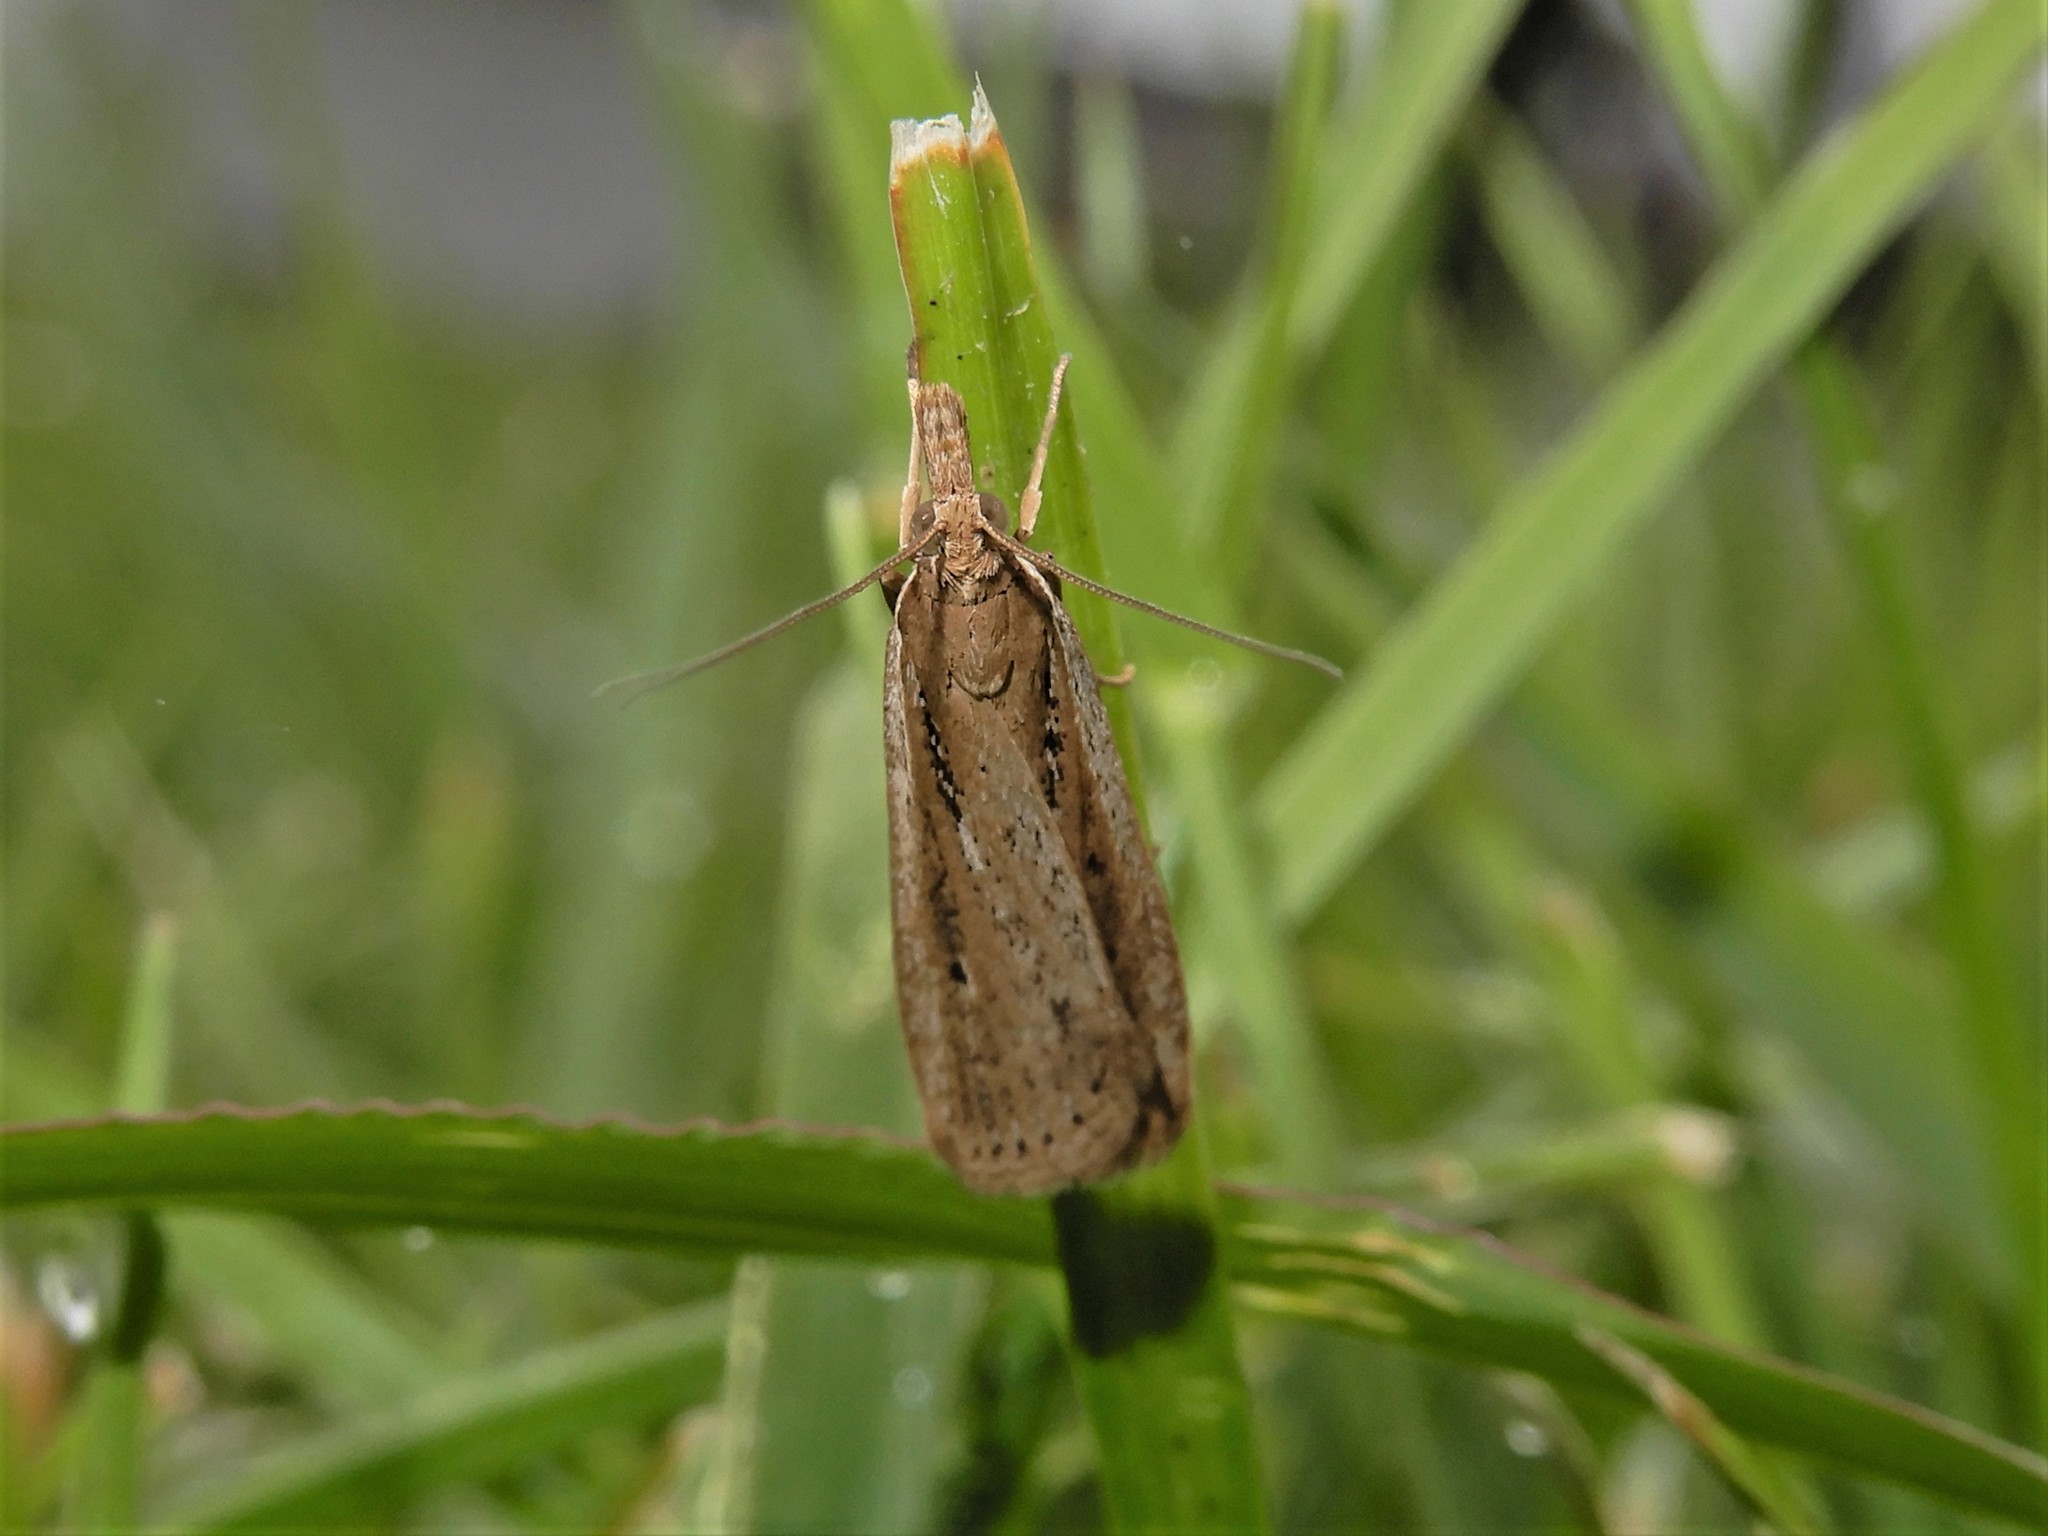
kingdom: Animalia
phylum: Arthropoda
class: Insecta
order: Lepidoptera
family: Crambidae
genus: Eudonia
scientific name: Eudonia sabulosella
